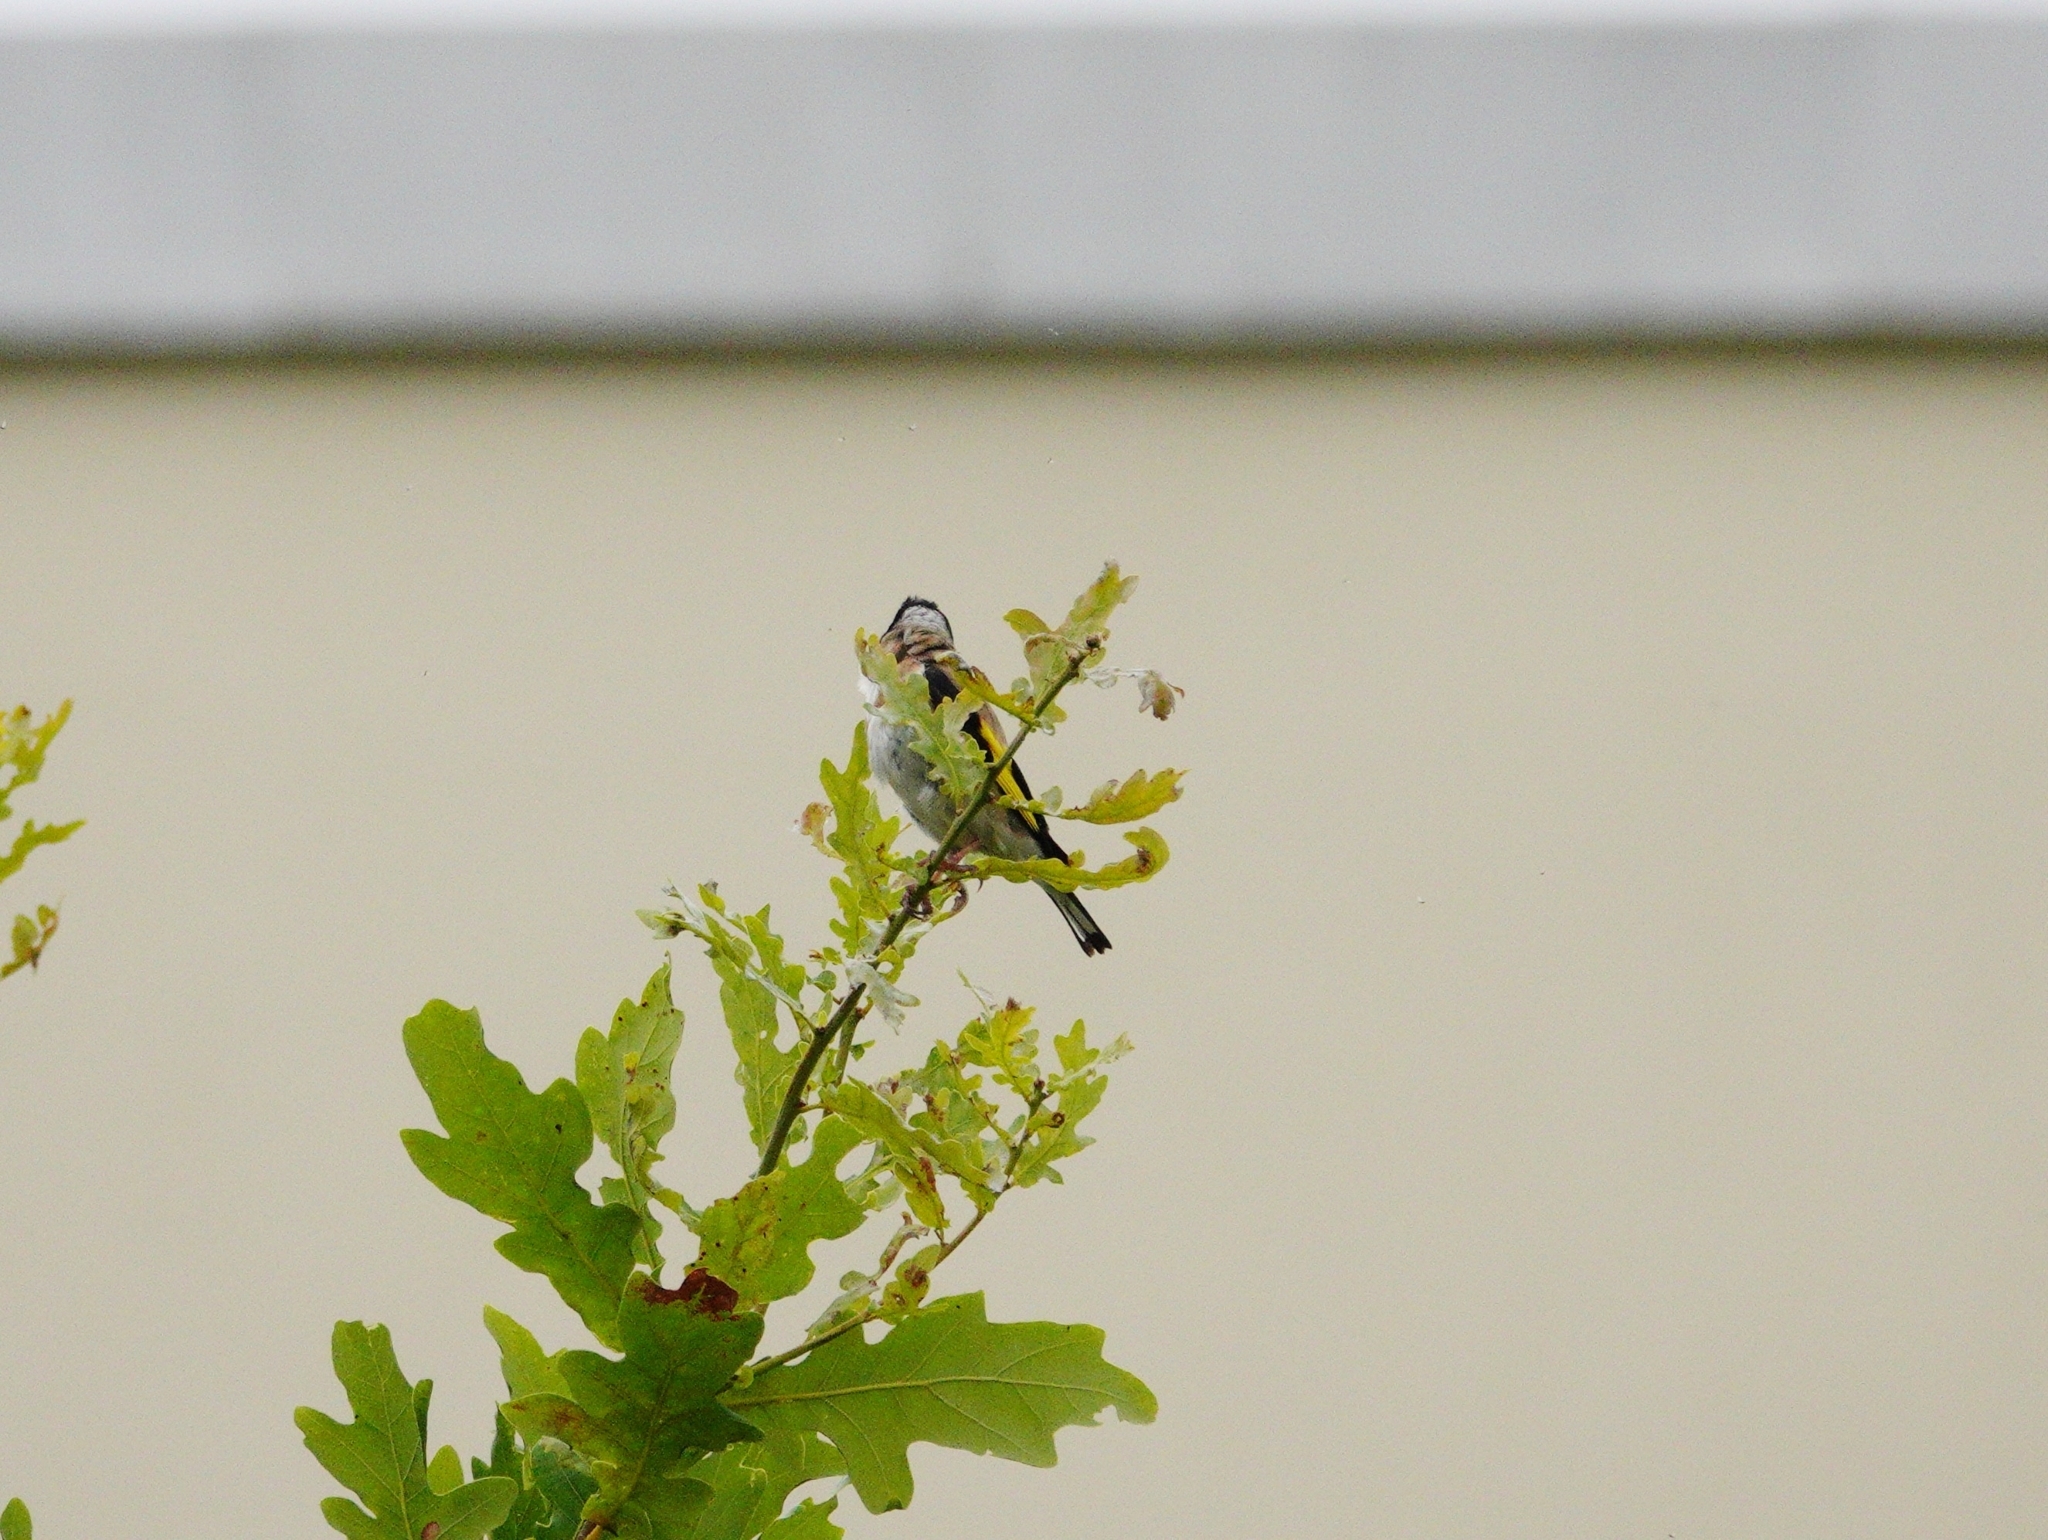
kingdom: Animalia
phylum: Chordata
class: Aves
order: Passeriformes
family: Fringillidae
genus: Carduelis
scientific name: Carduelis carduelis
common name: European goldfinch
